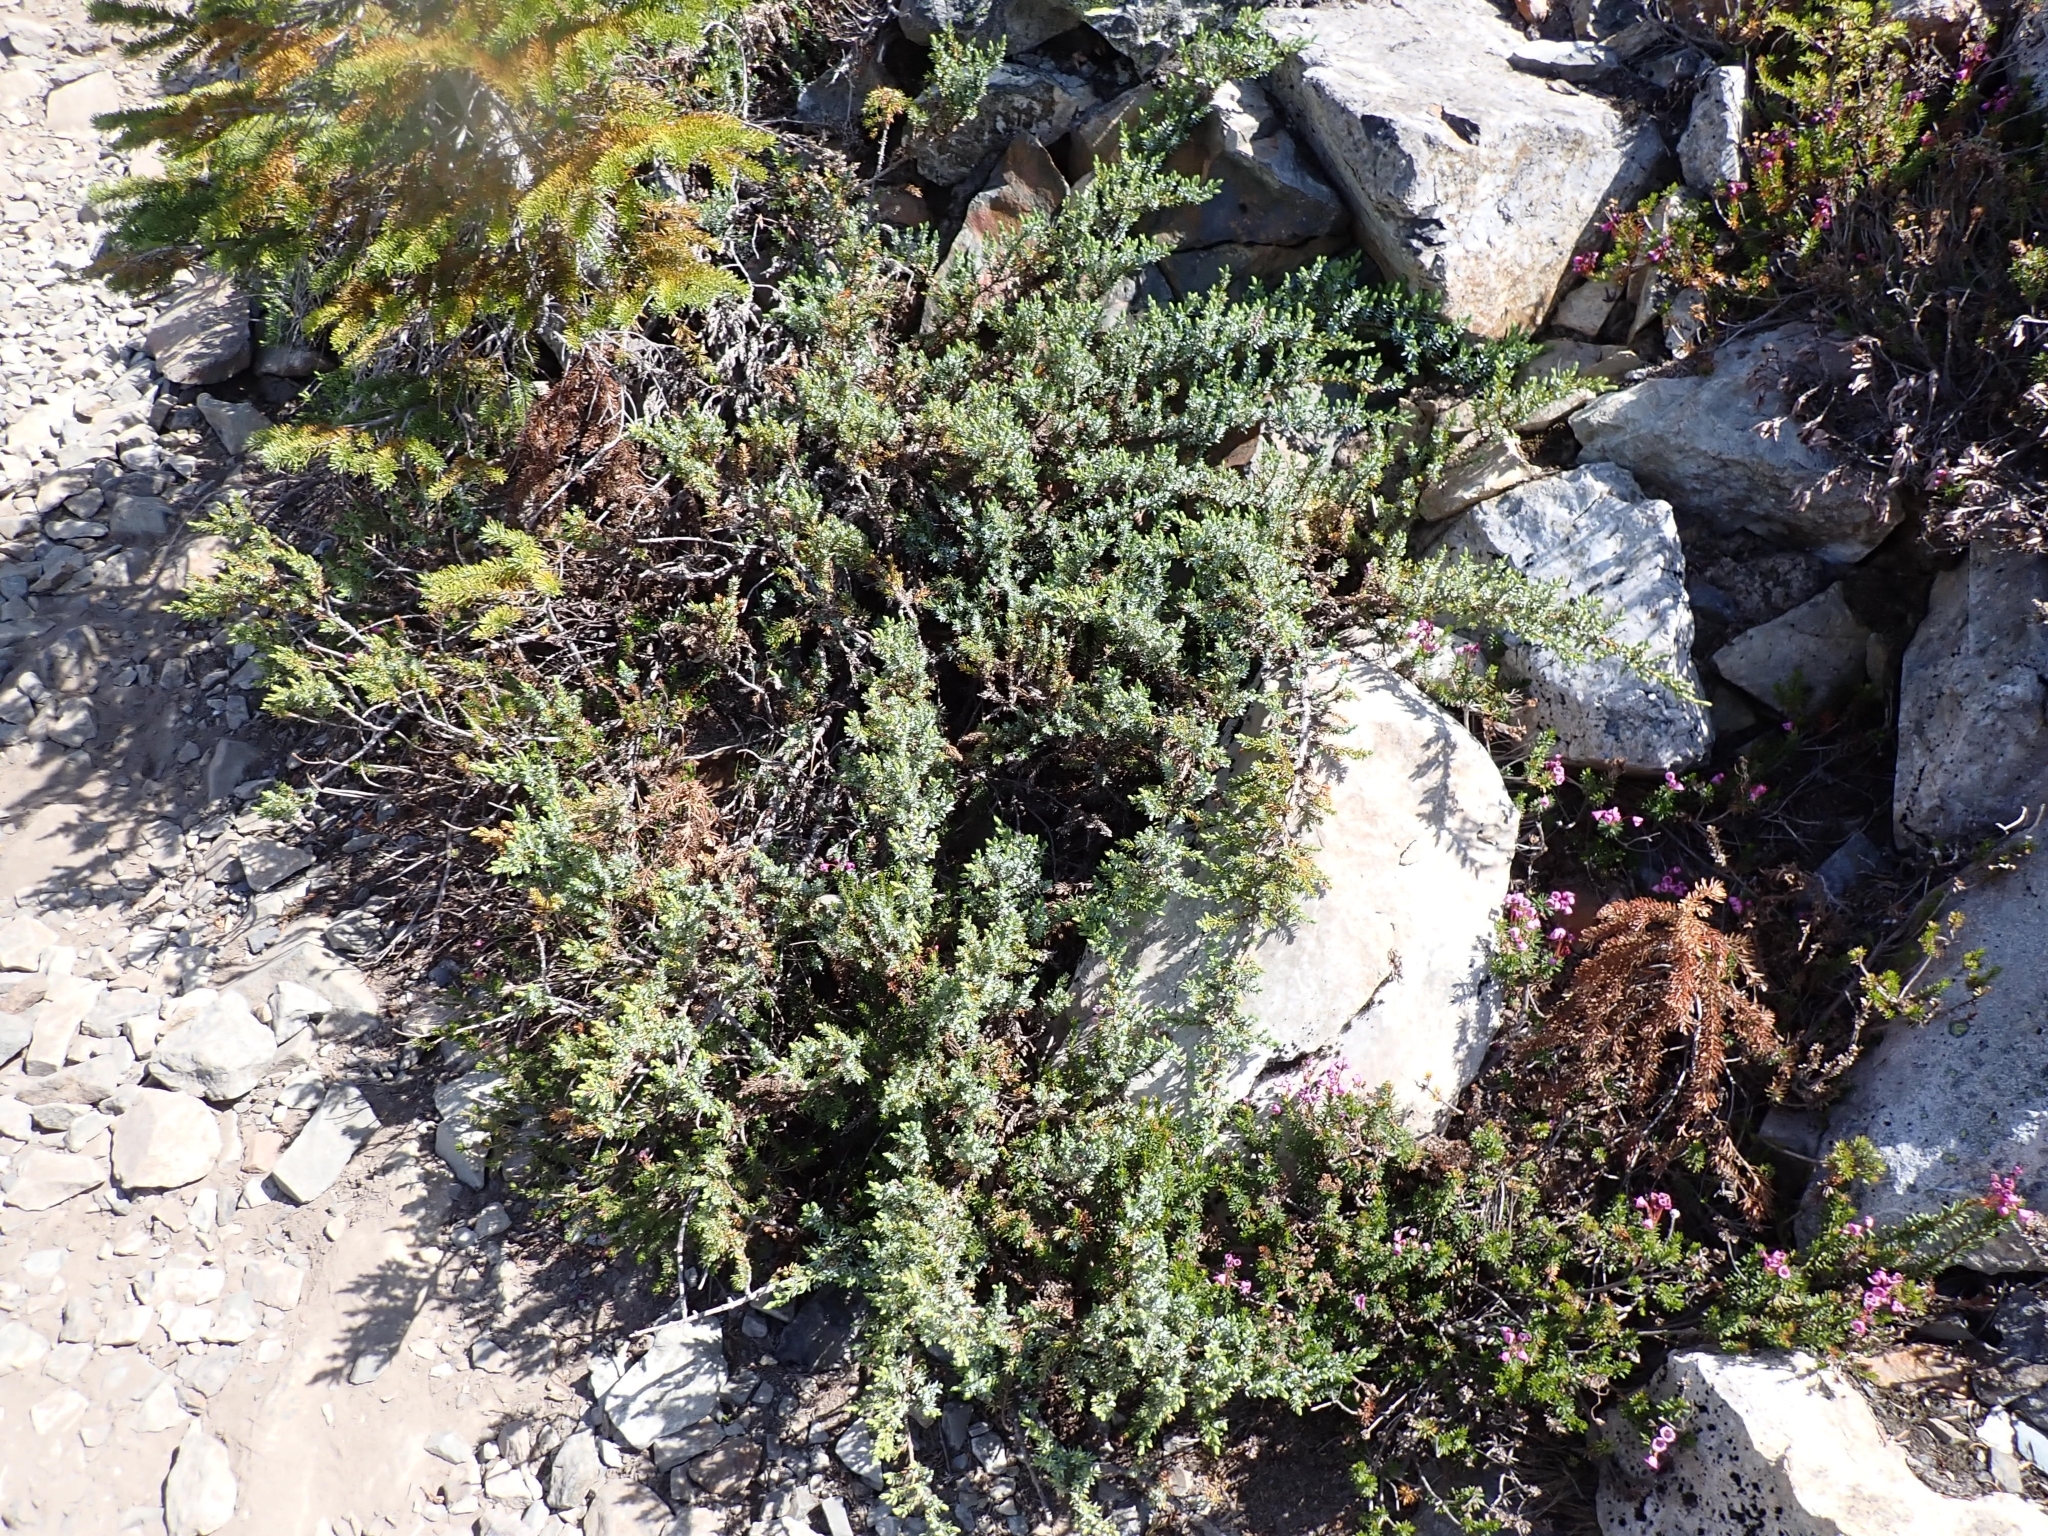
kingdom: Plantae
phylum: Tracheophyta
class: Pinopsida
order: Pinales
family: Cupressaceae
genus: Juniperus
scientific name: Juniperus communis
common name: Common juniper
